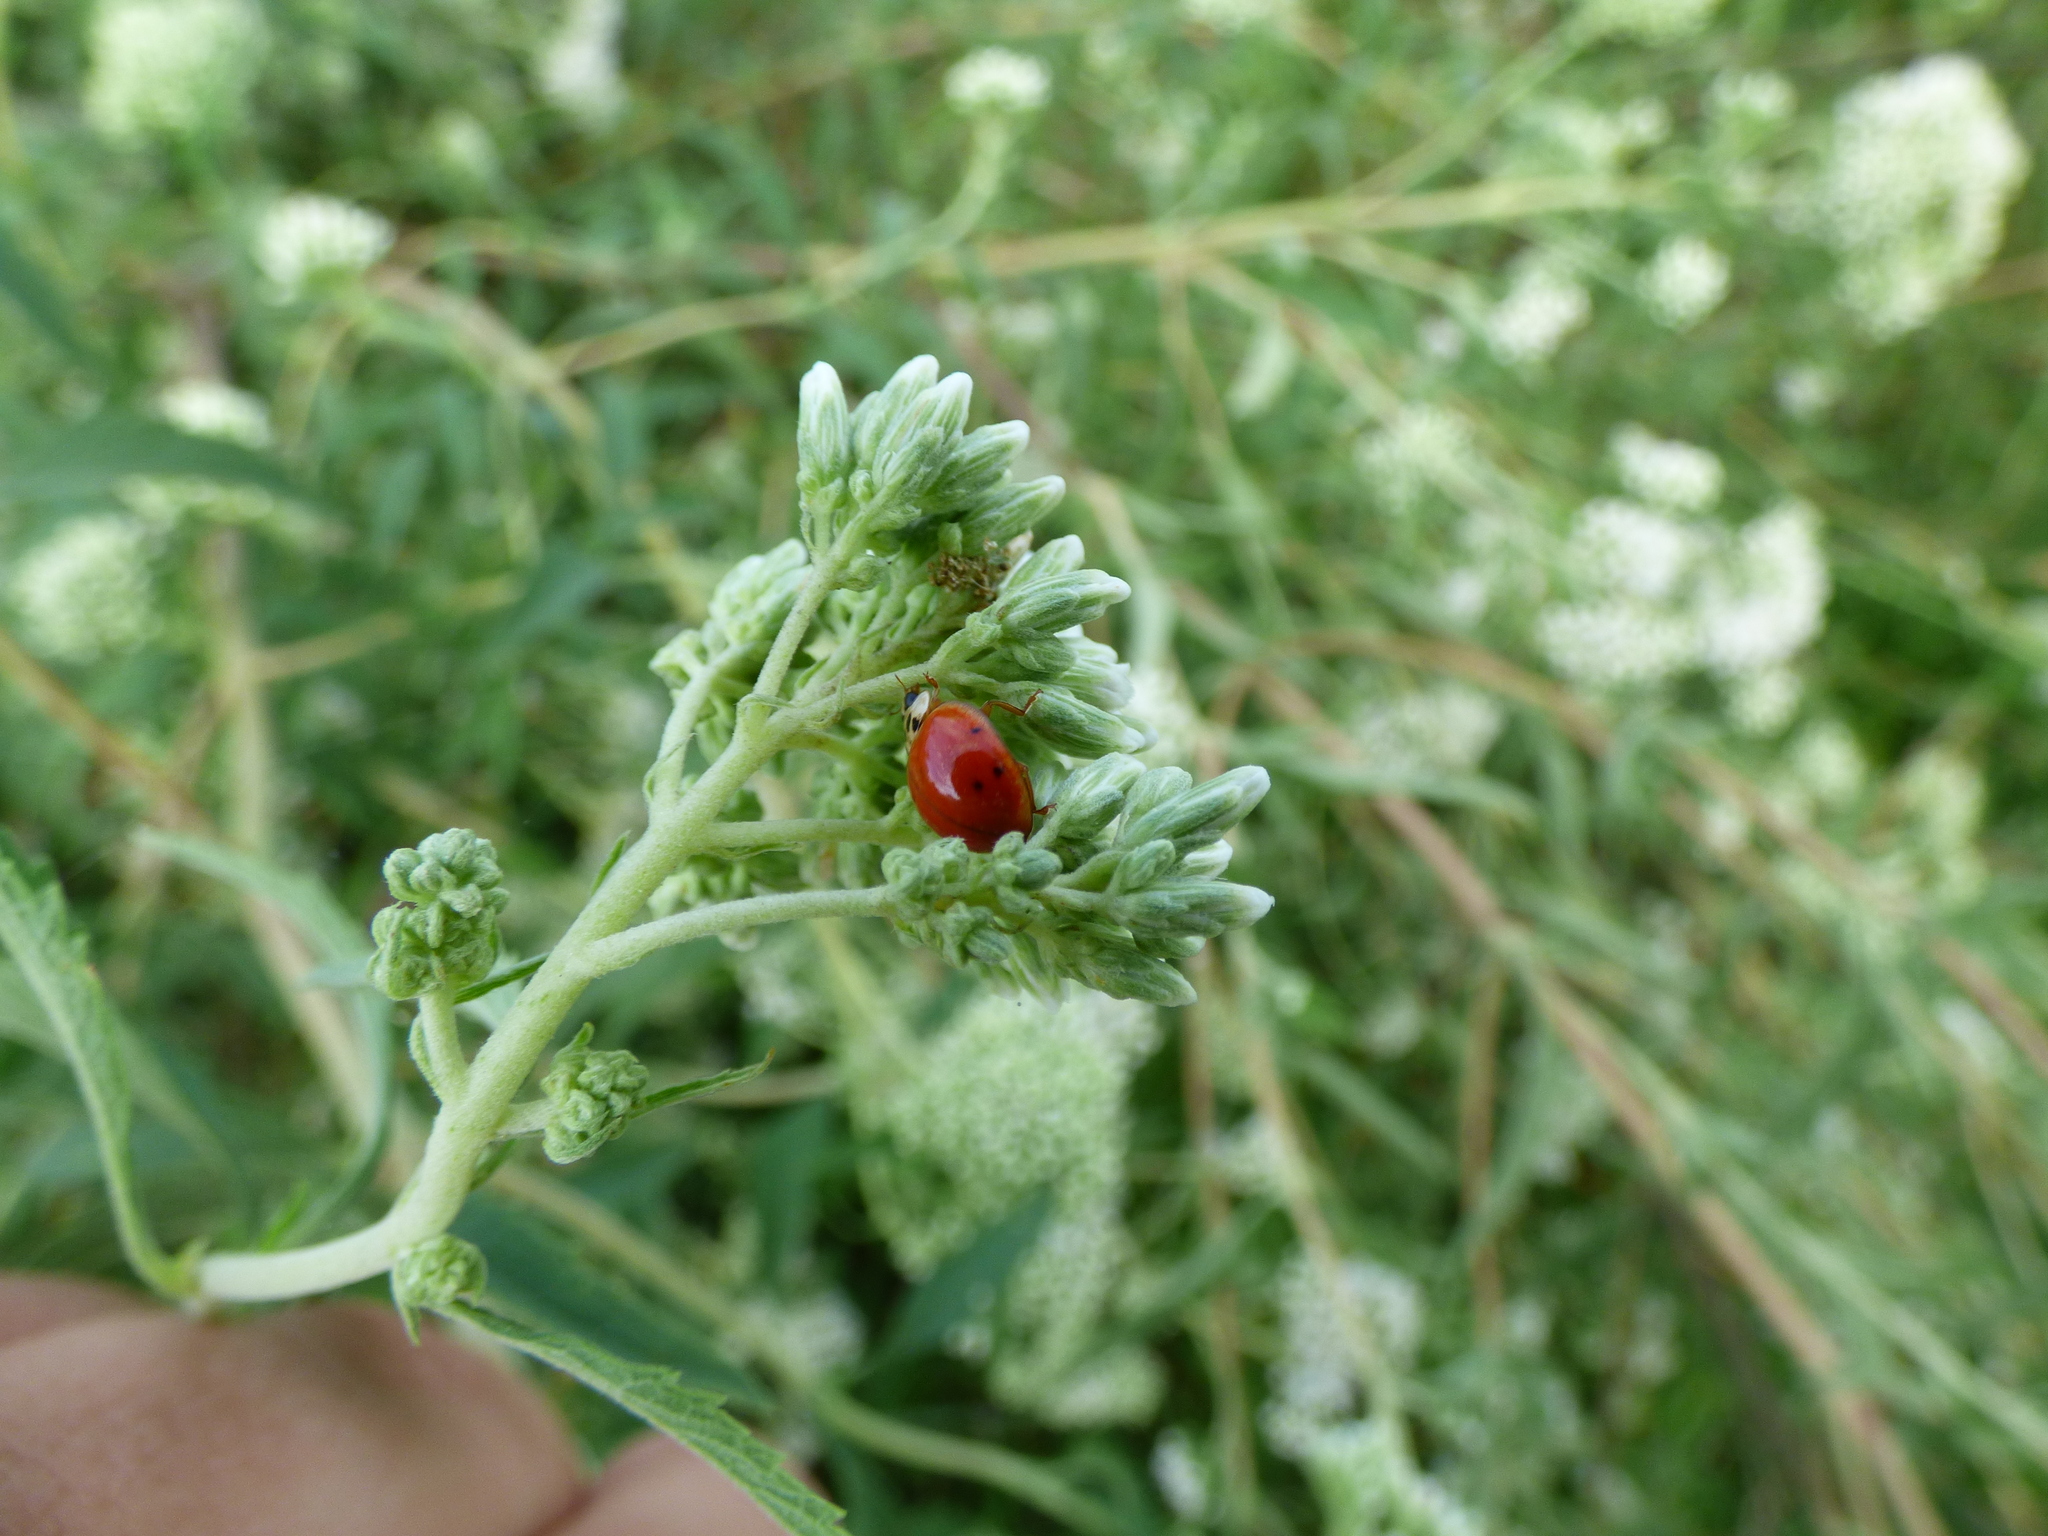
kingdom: Animalia
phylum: Arthropoda
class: Insecta
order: Coleoptera
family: Coccinellidae
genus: Harmonia
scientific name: Harmonia axyridis
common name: Harlequin ladybird
